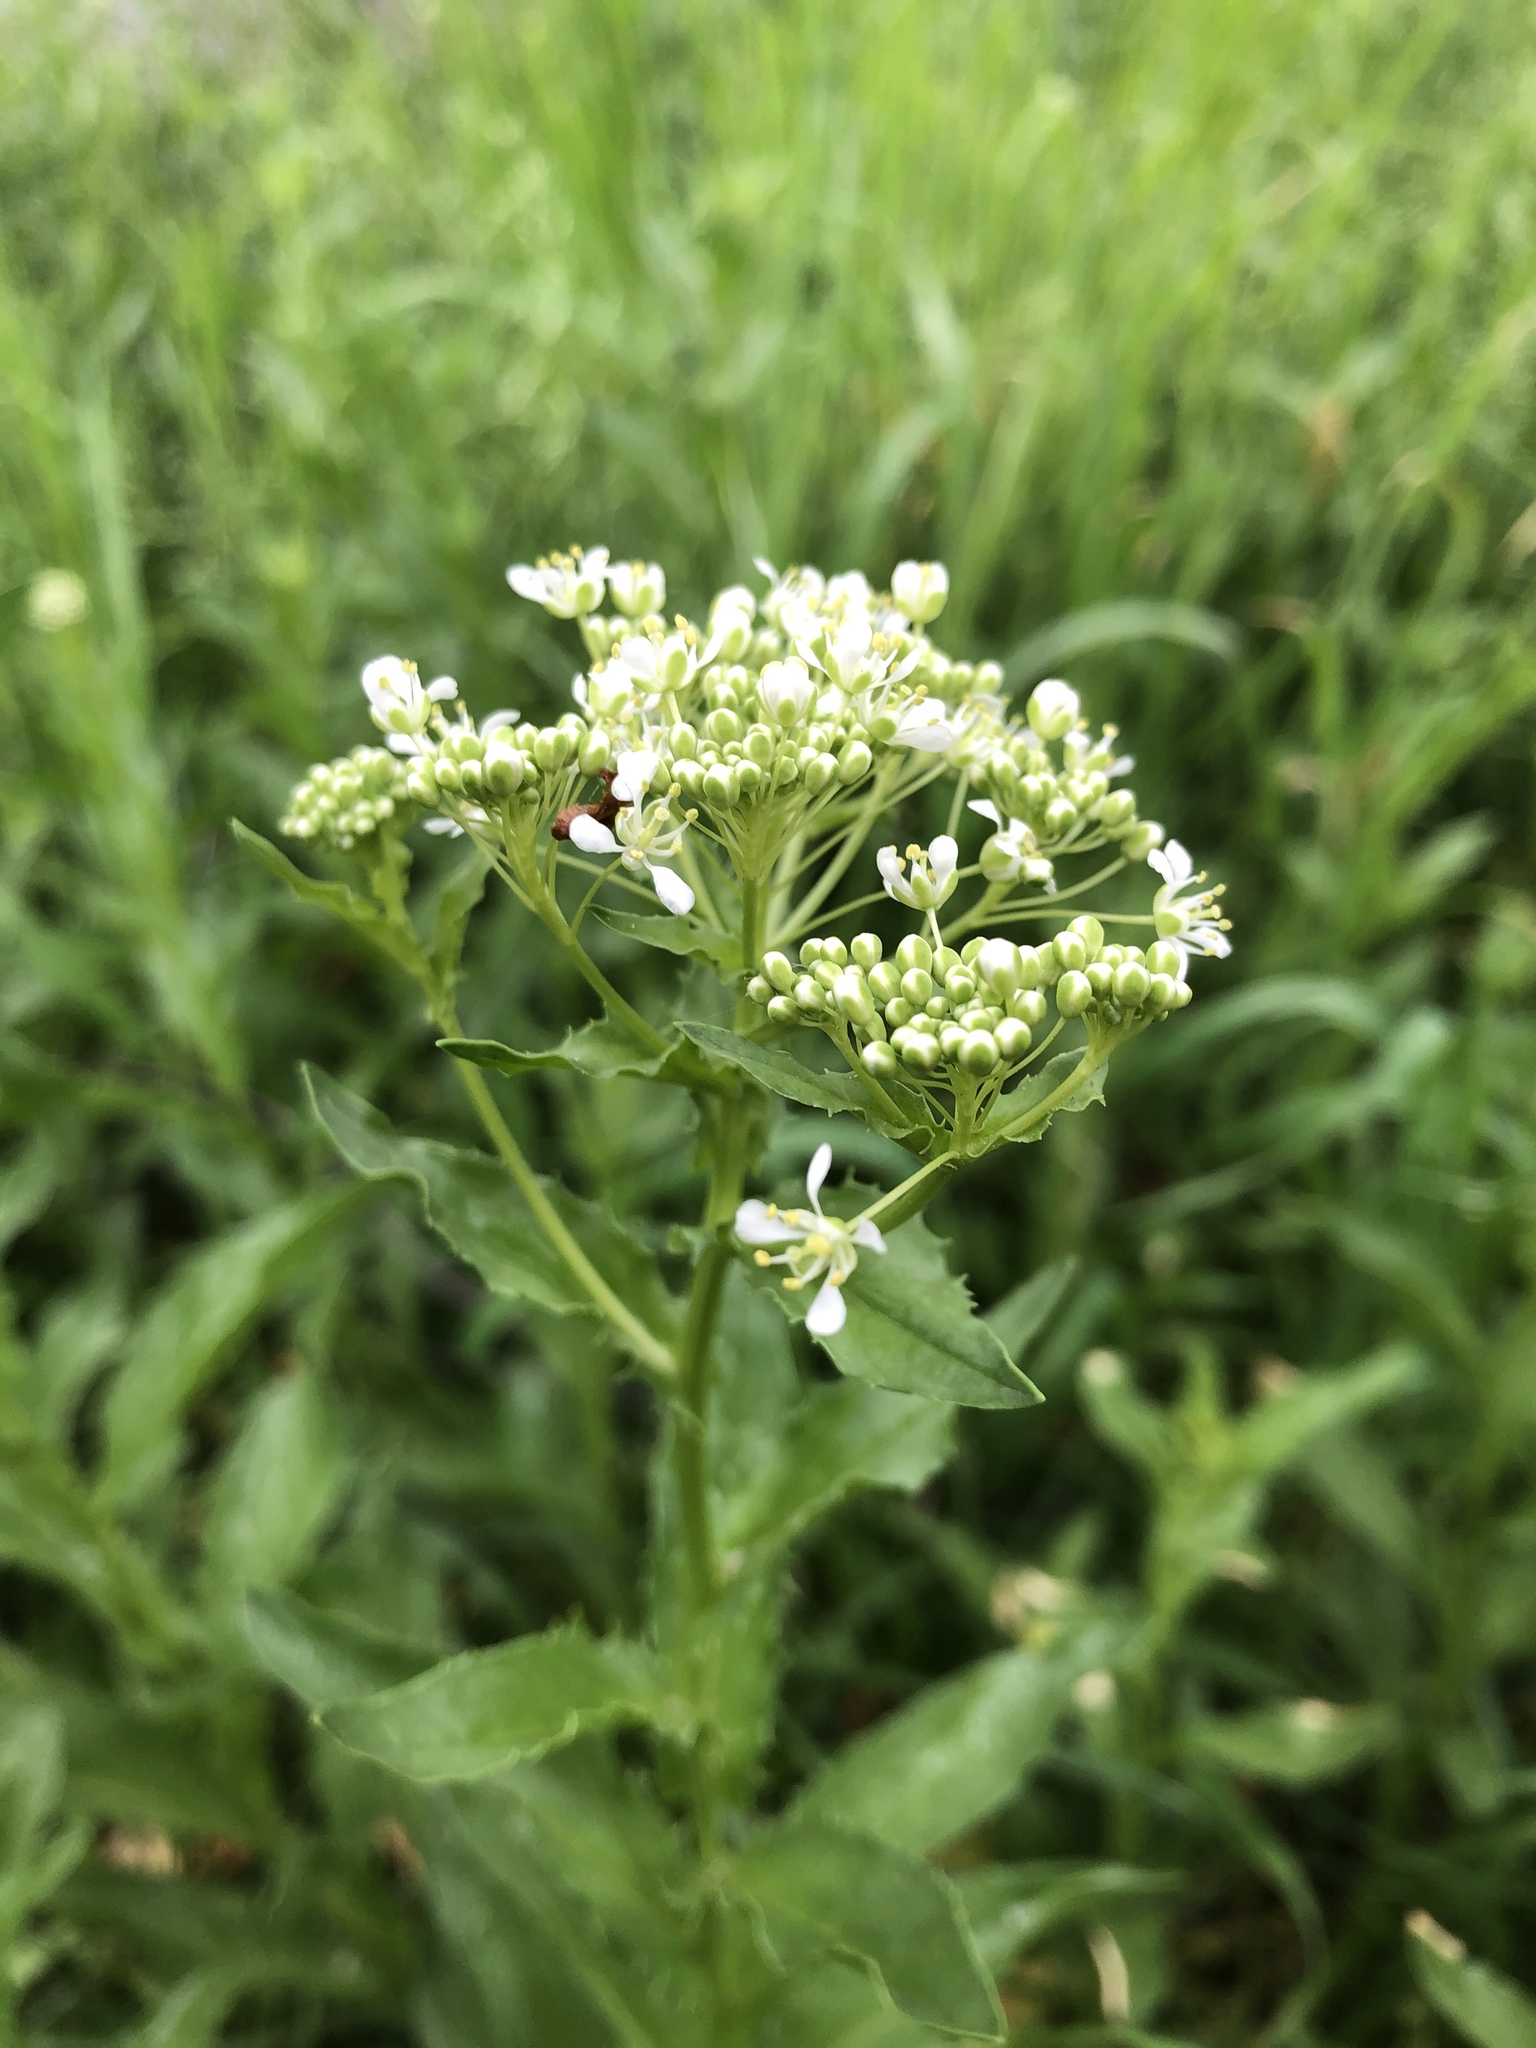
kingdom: Plantae
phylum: Tracheophyta
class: Magnoliopsida
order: Brassicales
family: Brassicaceae
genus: Lepidium
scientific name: Lepidium draba
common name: Hoary cress
